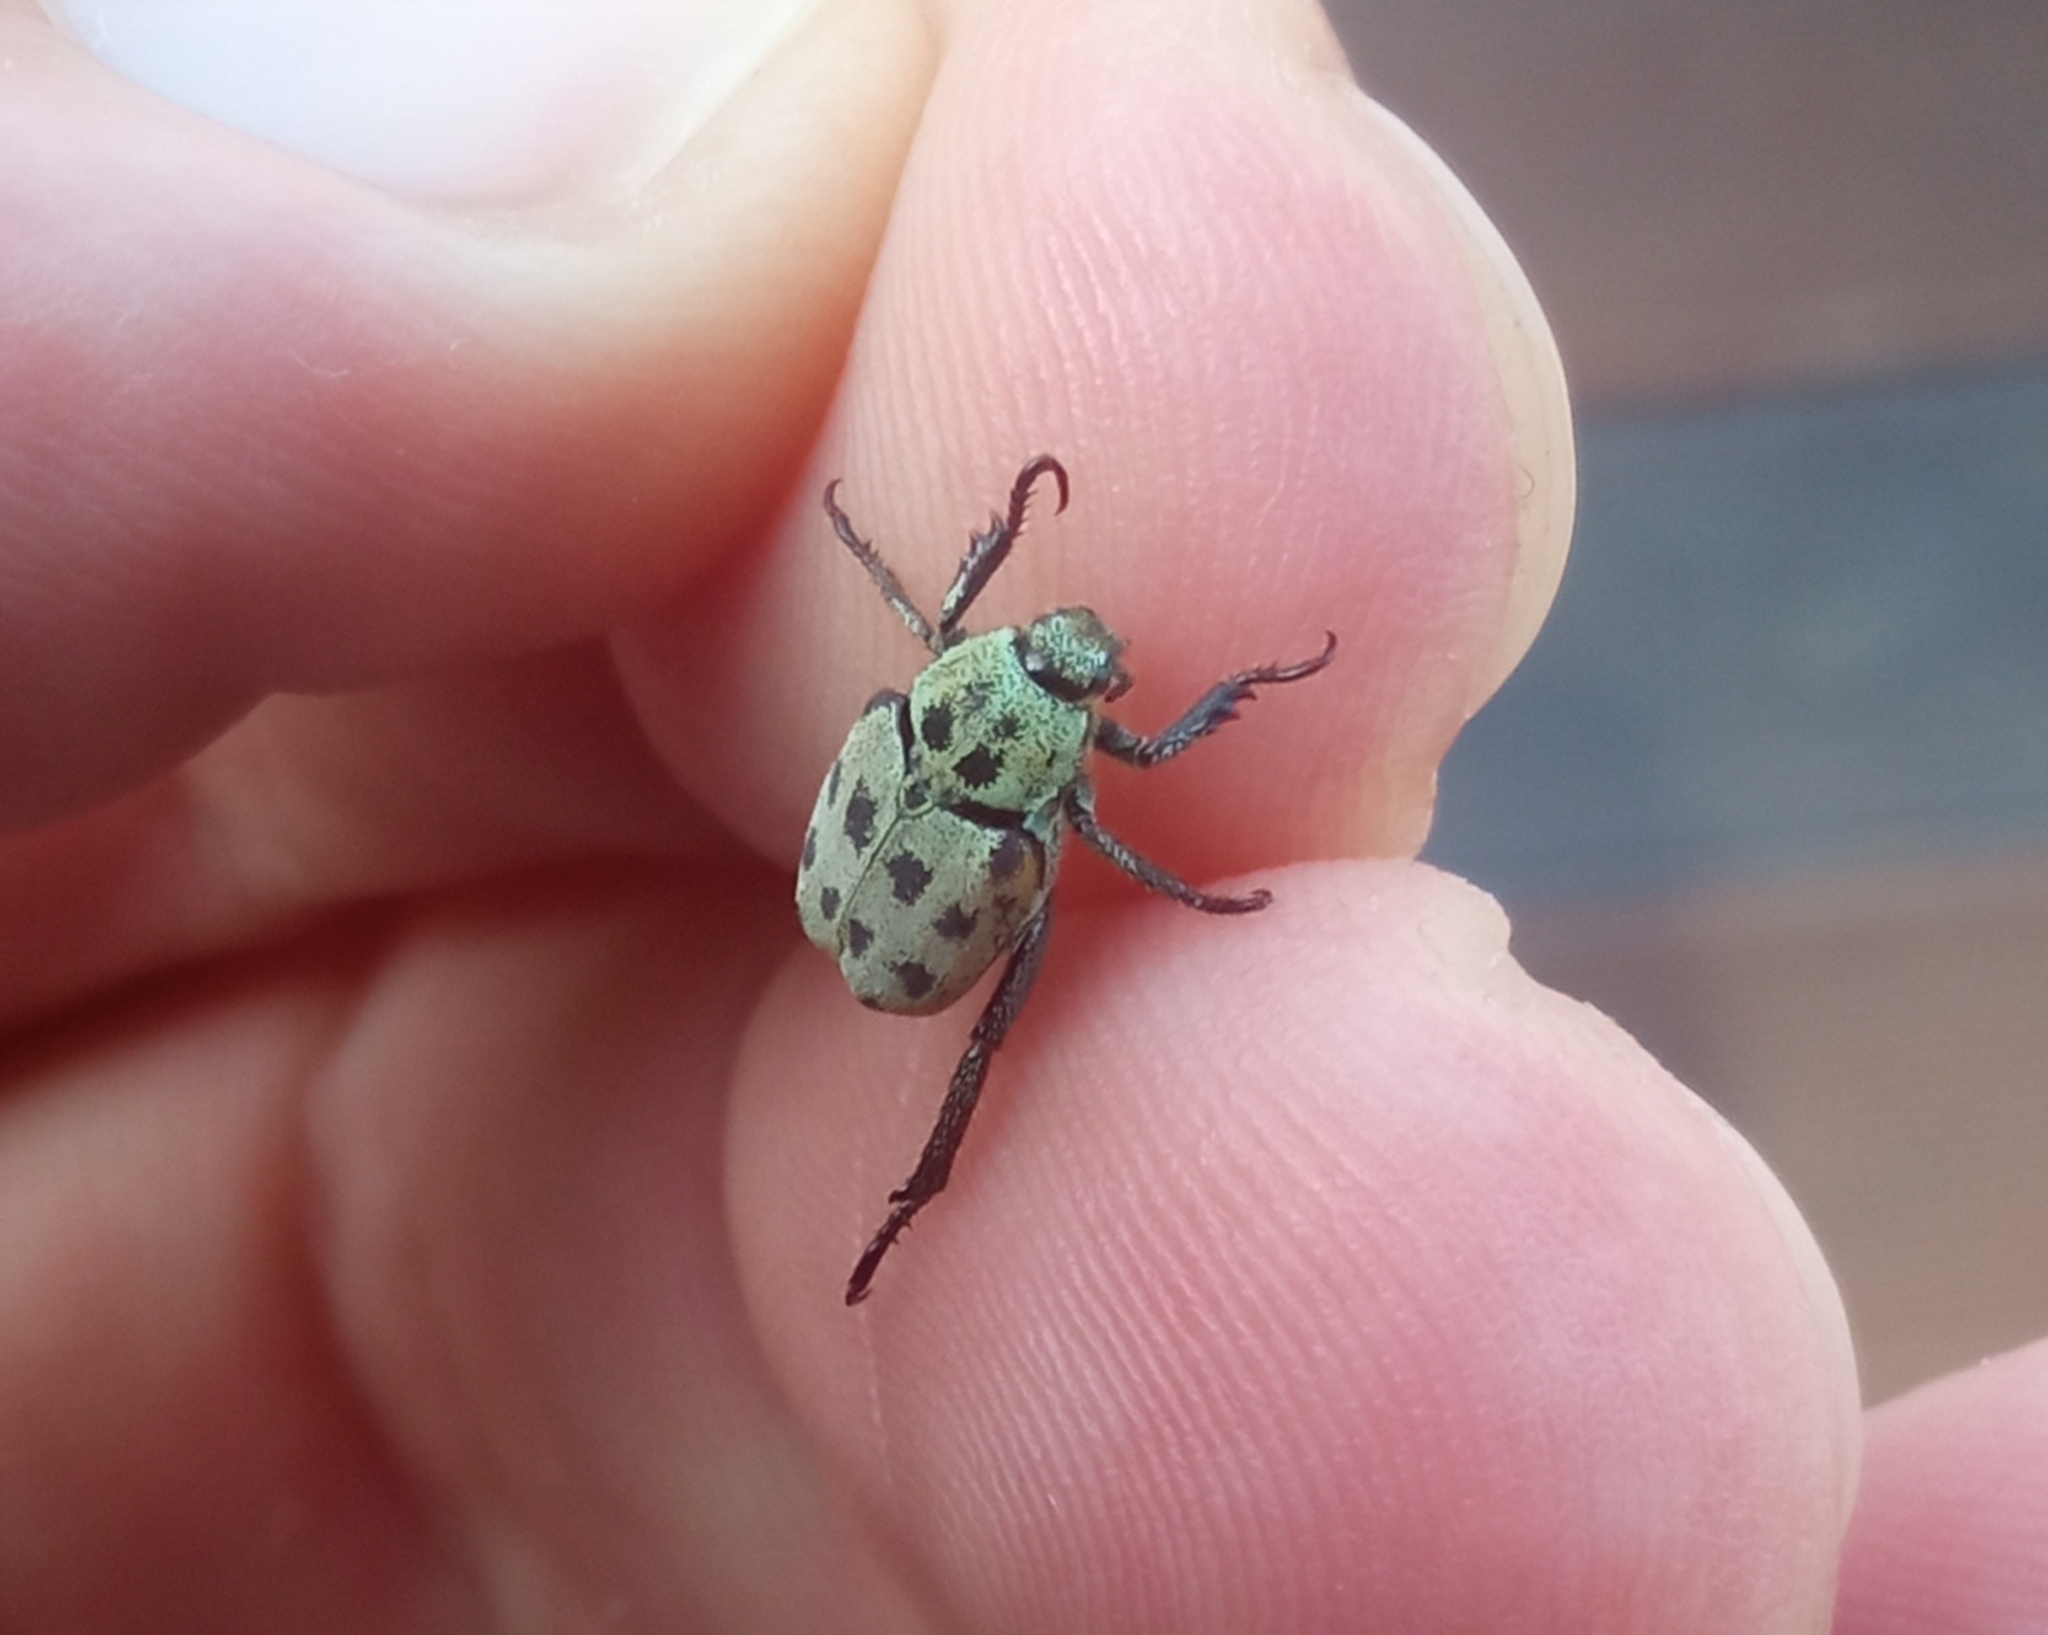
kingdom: Animalia
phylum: Arthropoda
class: Insecta
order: Coleoptera
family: Scarabaeidae
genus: Hoplia
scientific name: Hoplia aureola
